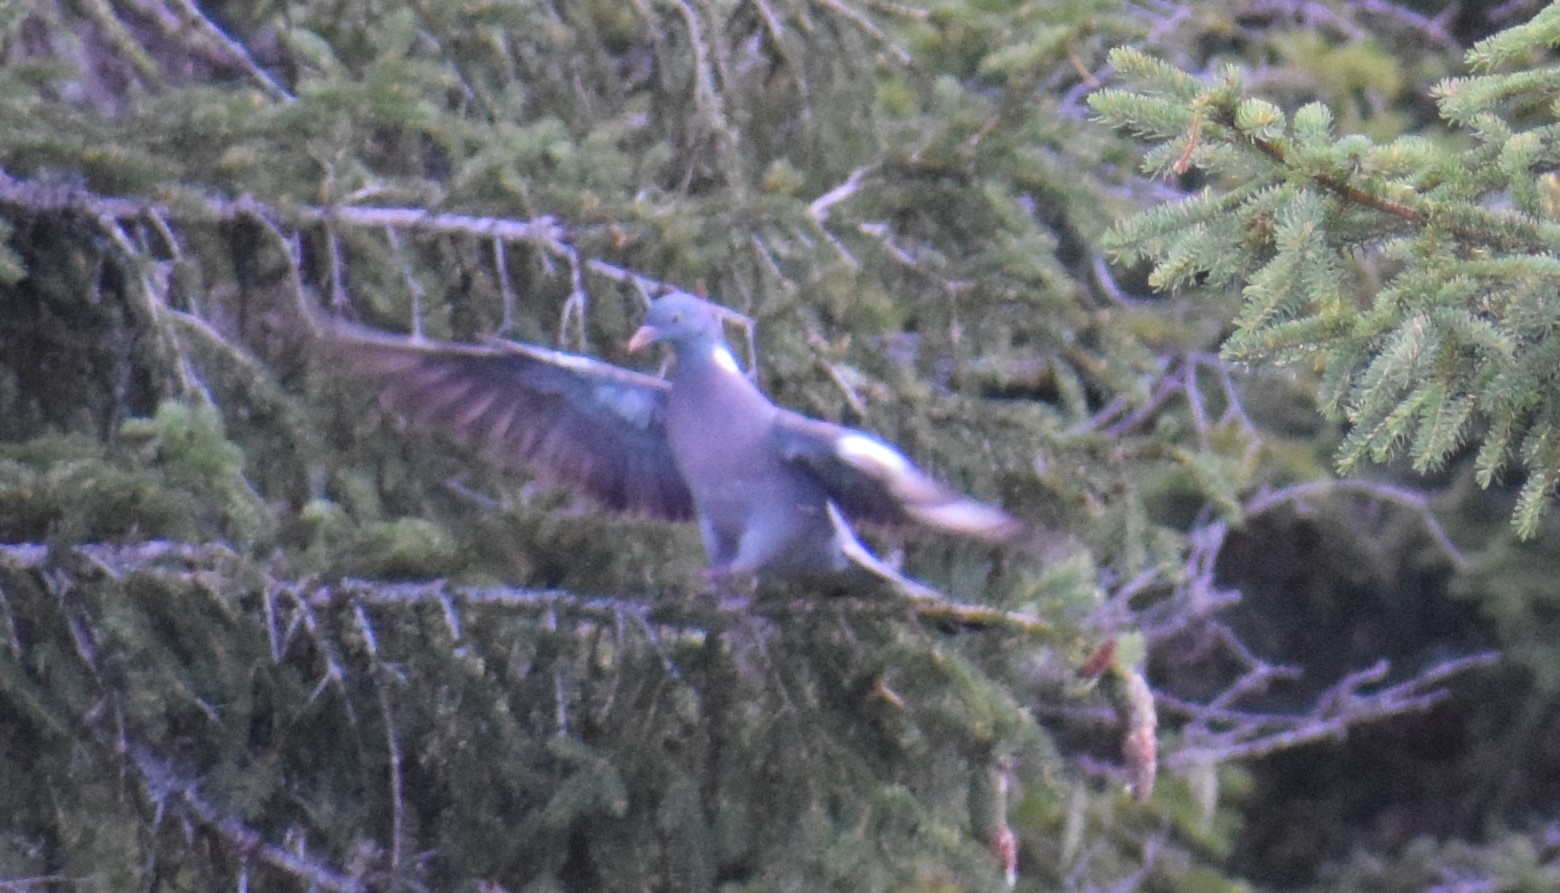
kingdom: Animalia
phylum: Chordata
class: Aves
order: Columbiformes
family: Columbidae
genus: Columba
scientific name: Columba palumbus
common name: Common wood pigeon
